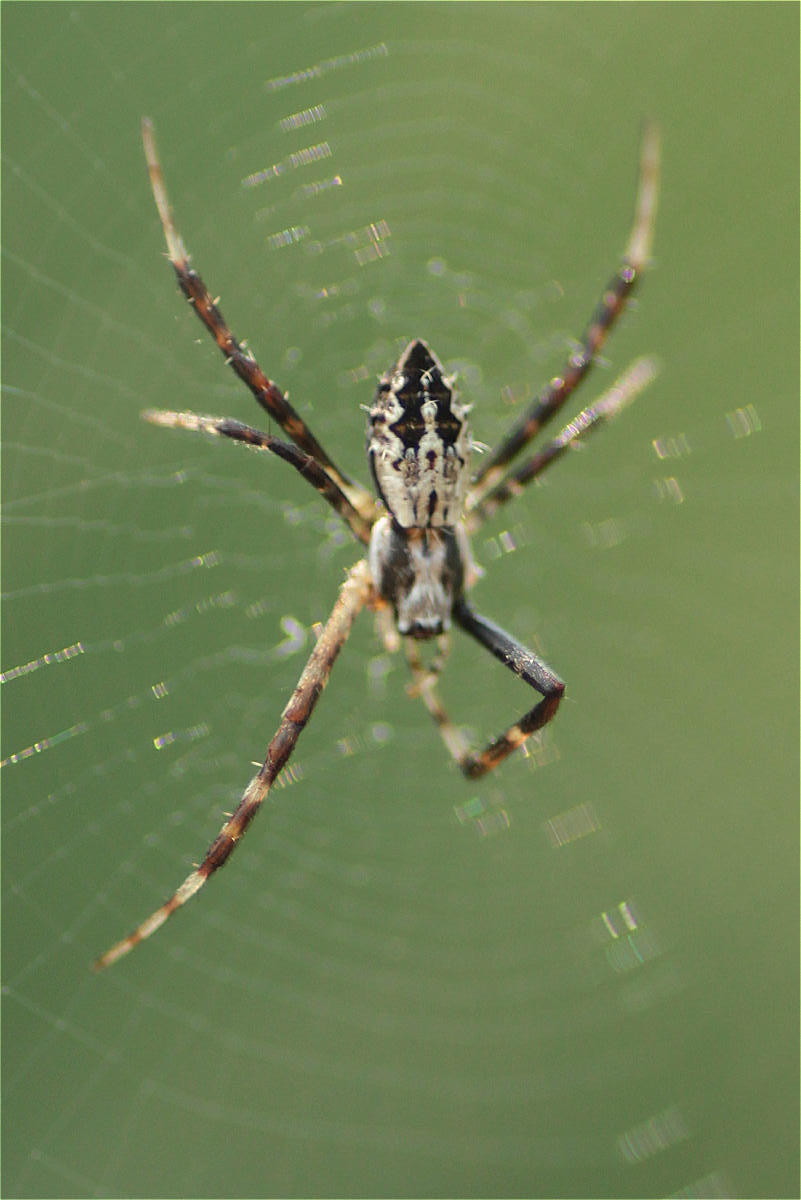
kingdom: Animalia
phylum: Arthropoda
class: Arachnida
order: Araneae
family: Araneidae
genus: Argiope
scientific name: Argiope argentata
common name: Orb weavers
